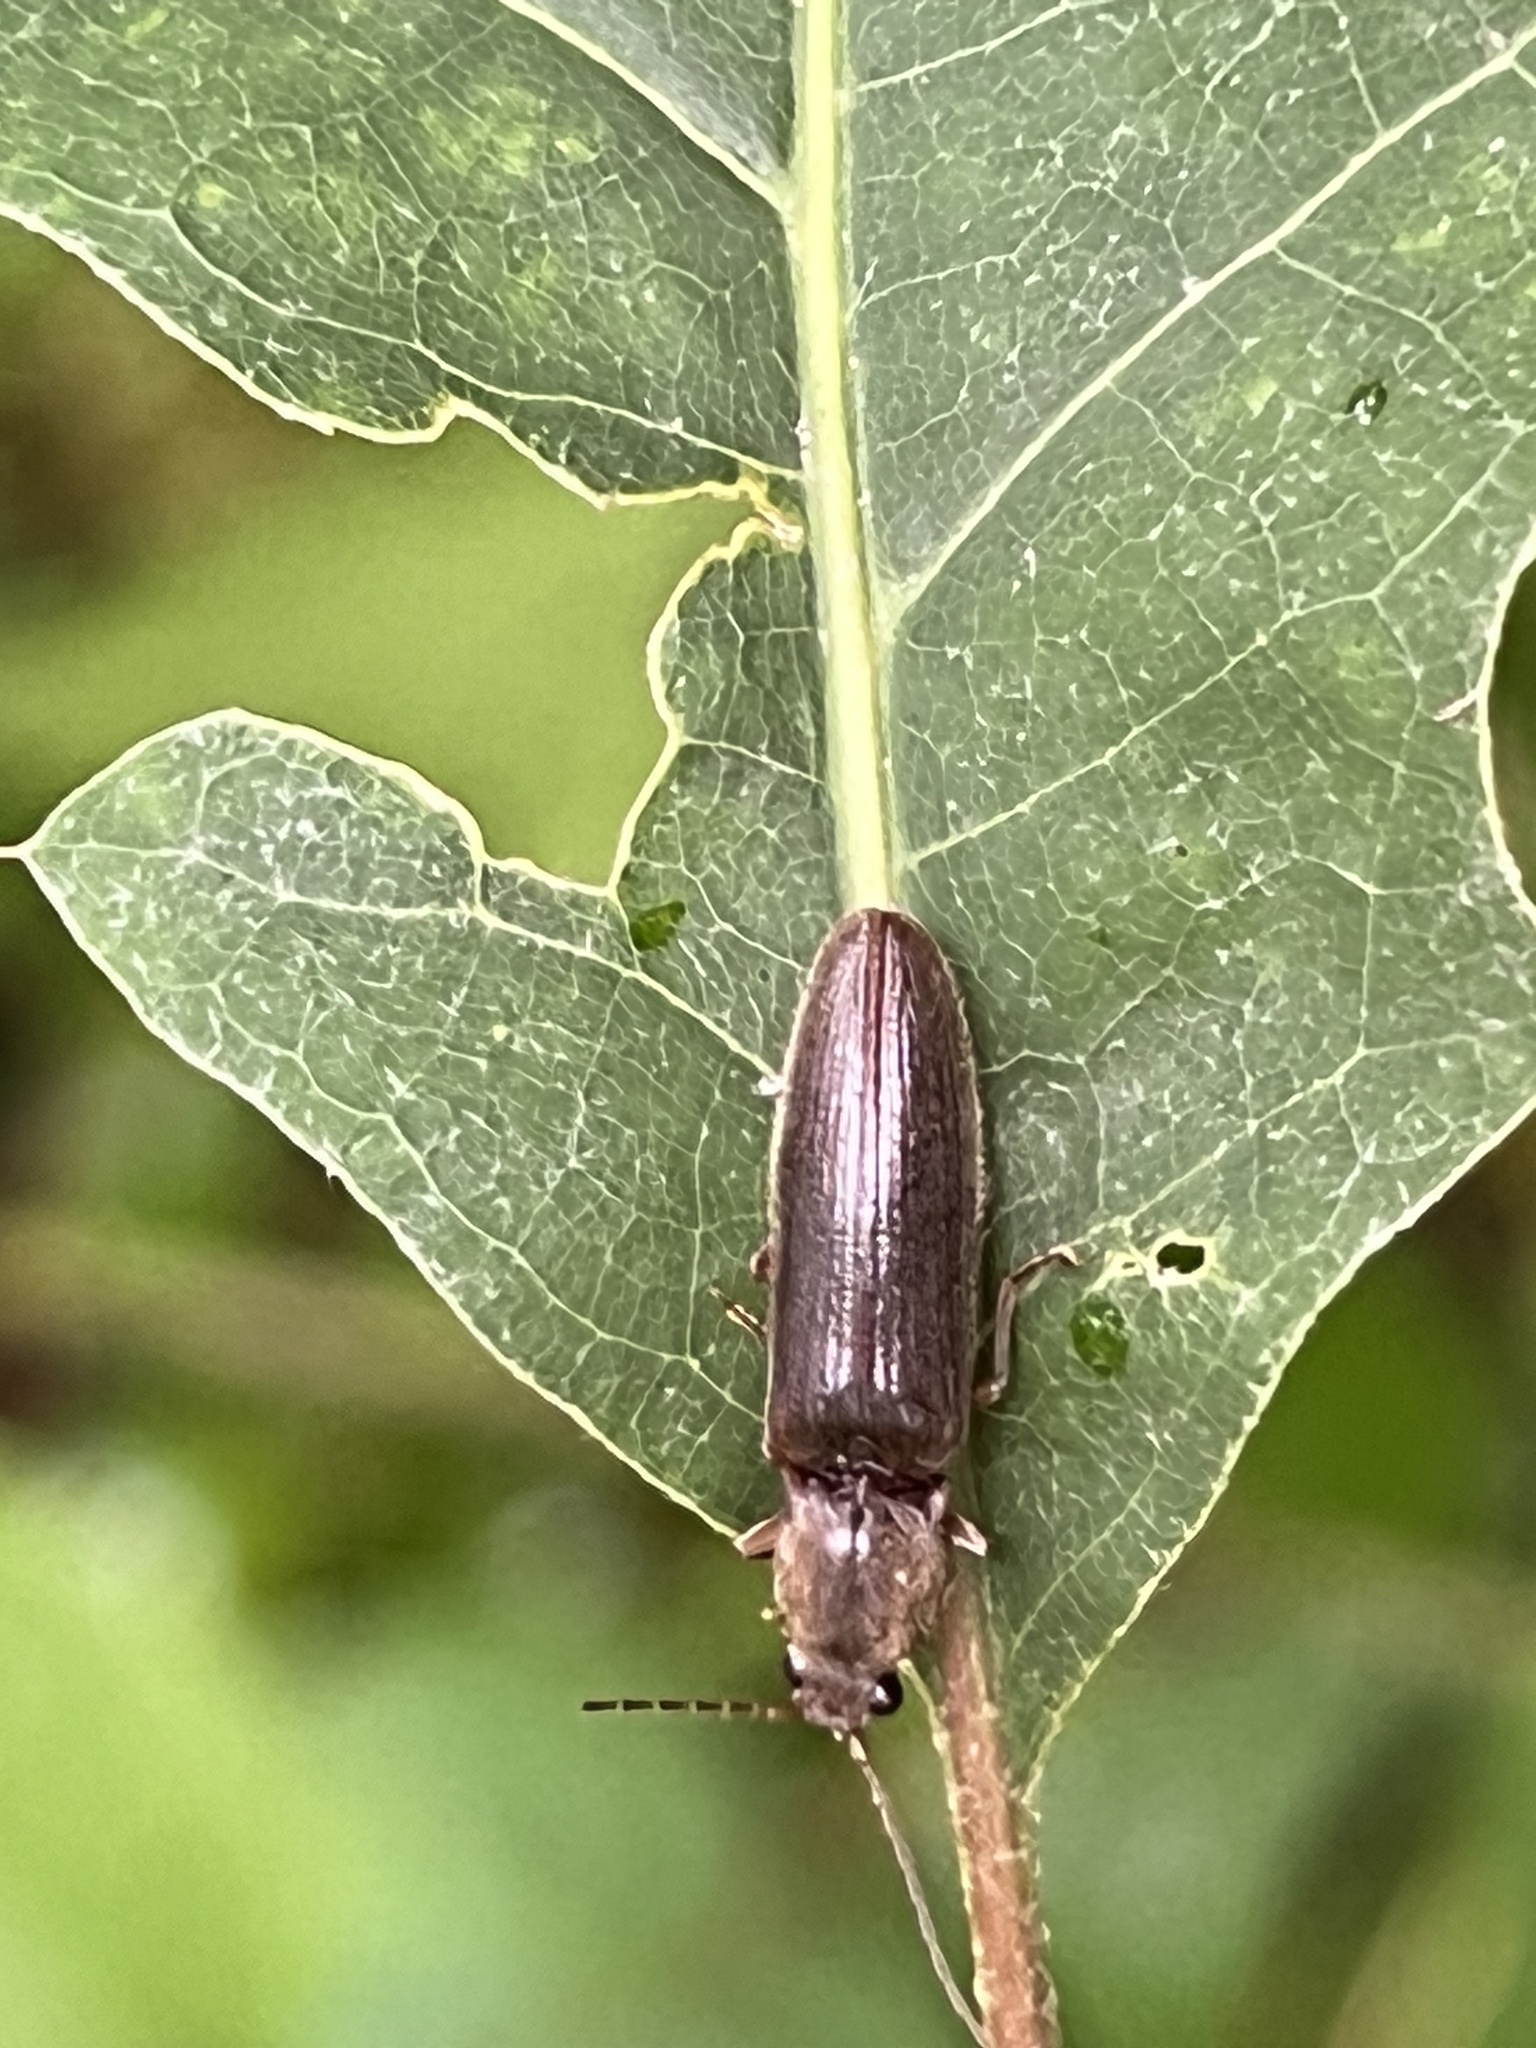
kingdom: Animalia
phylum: Arthropoda
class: Insecta
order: Coleoptera
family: Elateridae
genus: Athous
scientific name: Athous brightwelli
